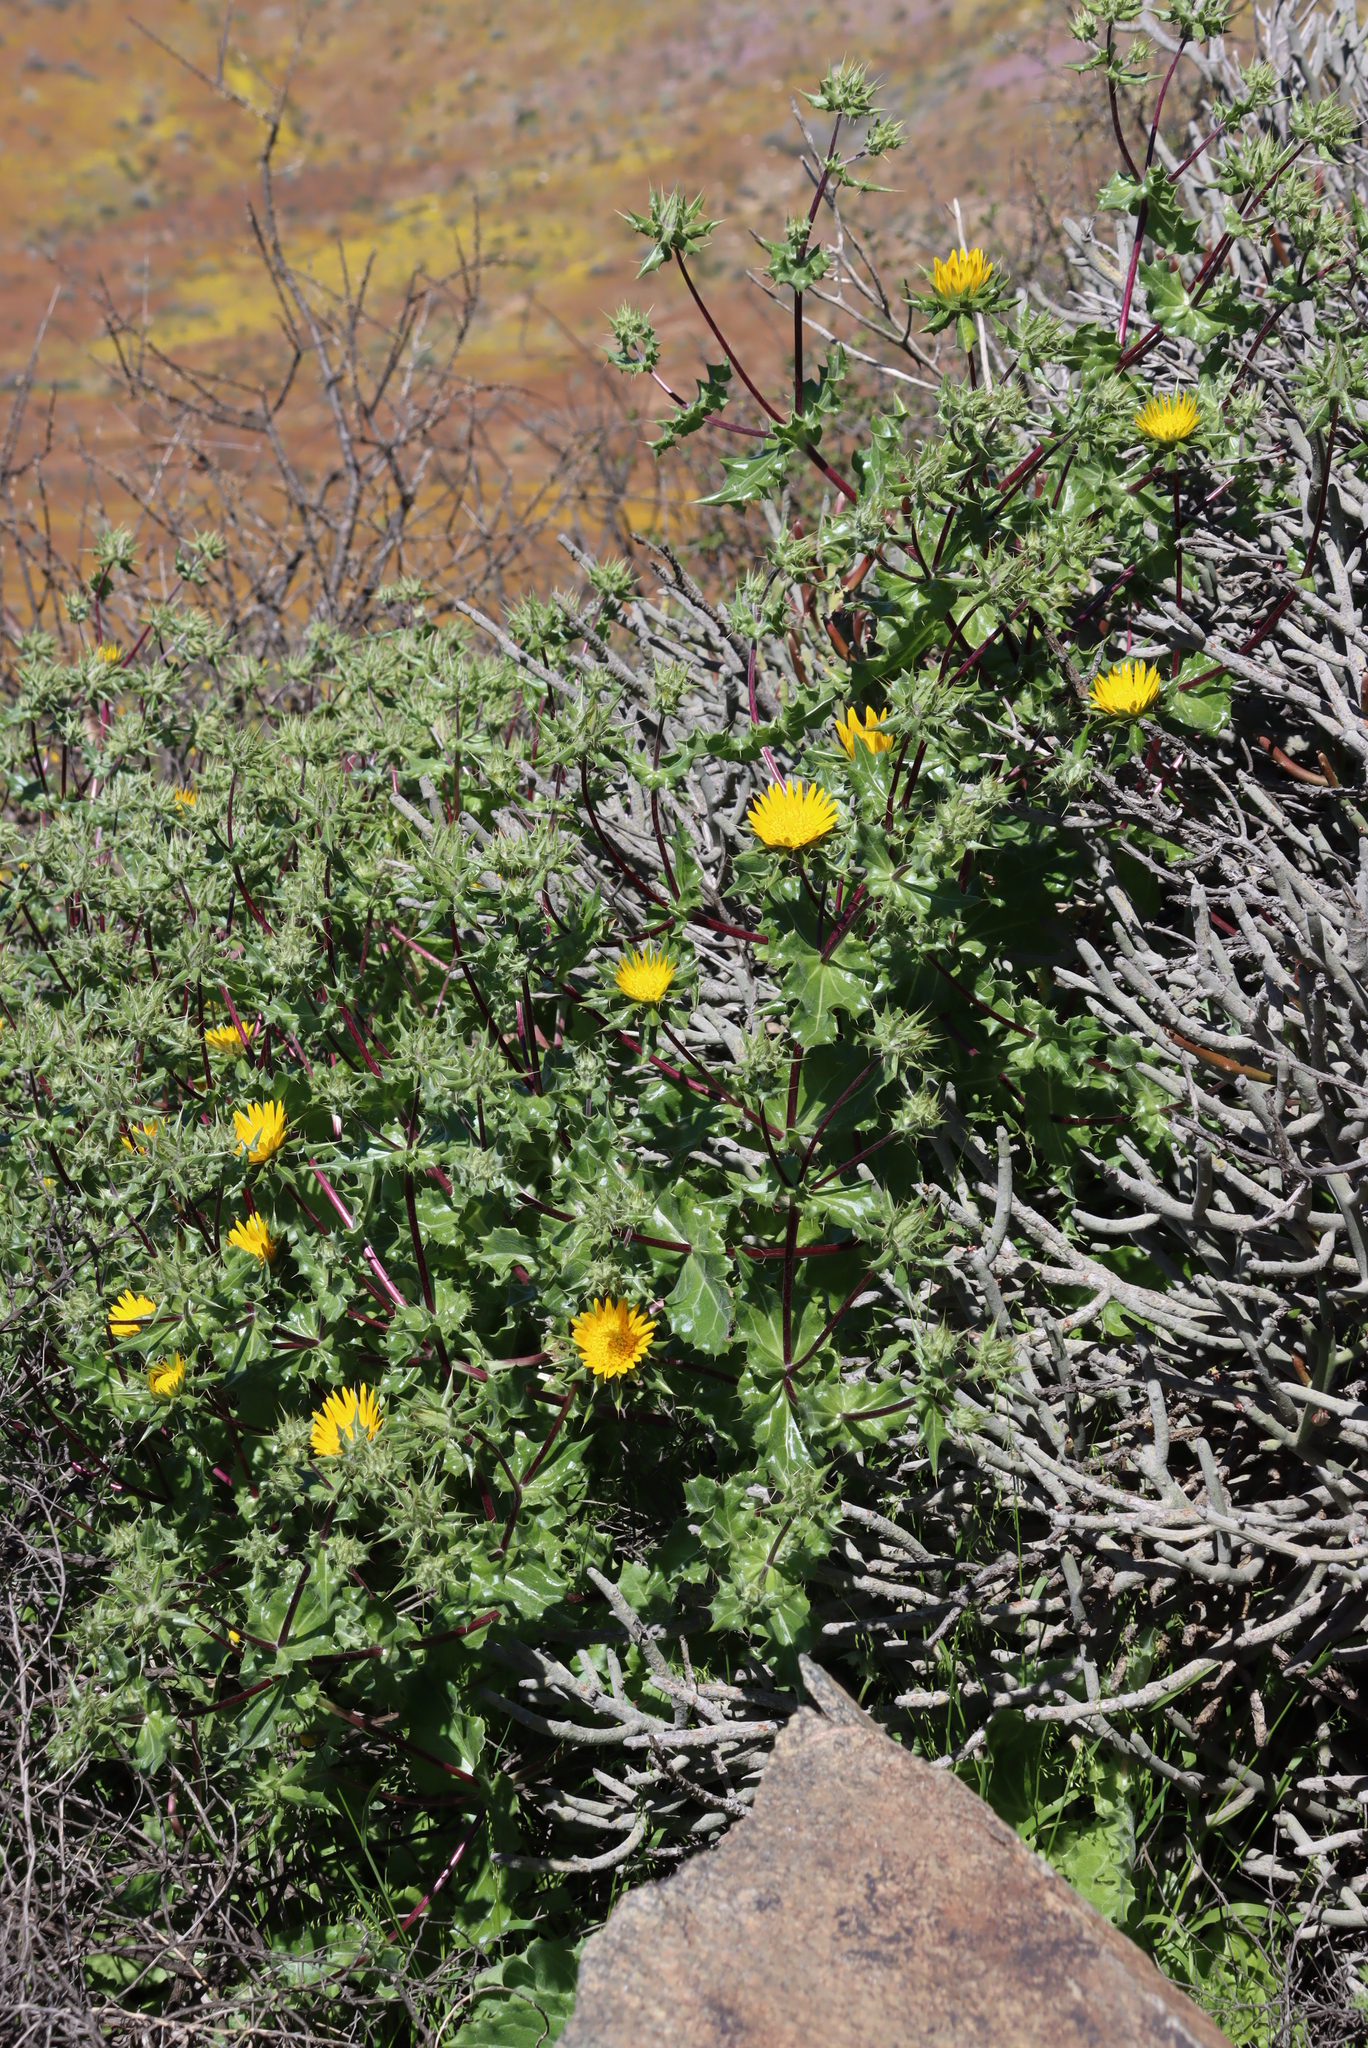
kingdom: Plantae
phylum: Tracheophyta
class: Magnoliopsida
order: Asterales
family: Asteraceae
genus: Berkheya
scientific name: Berkheya spinosissima
